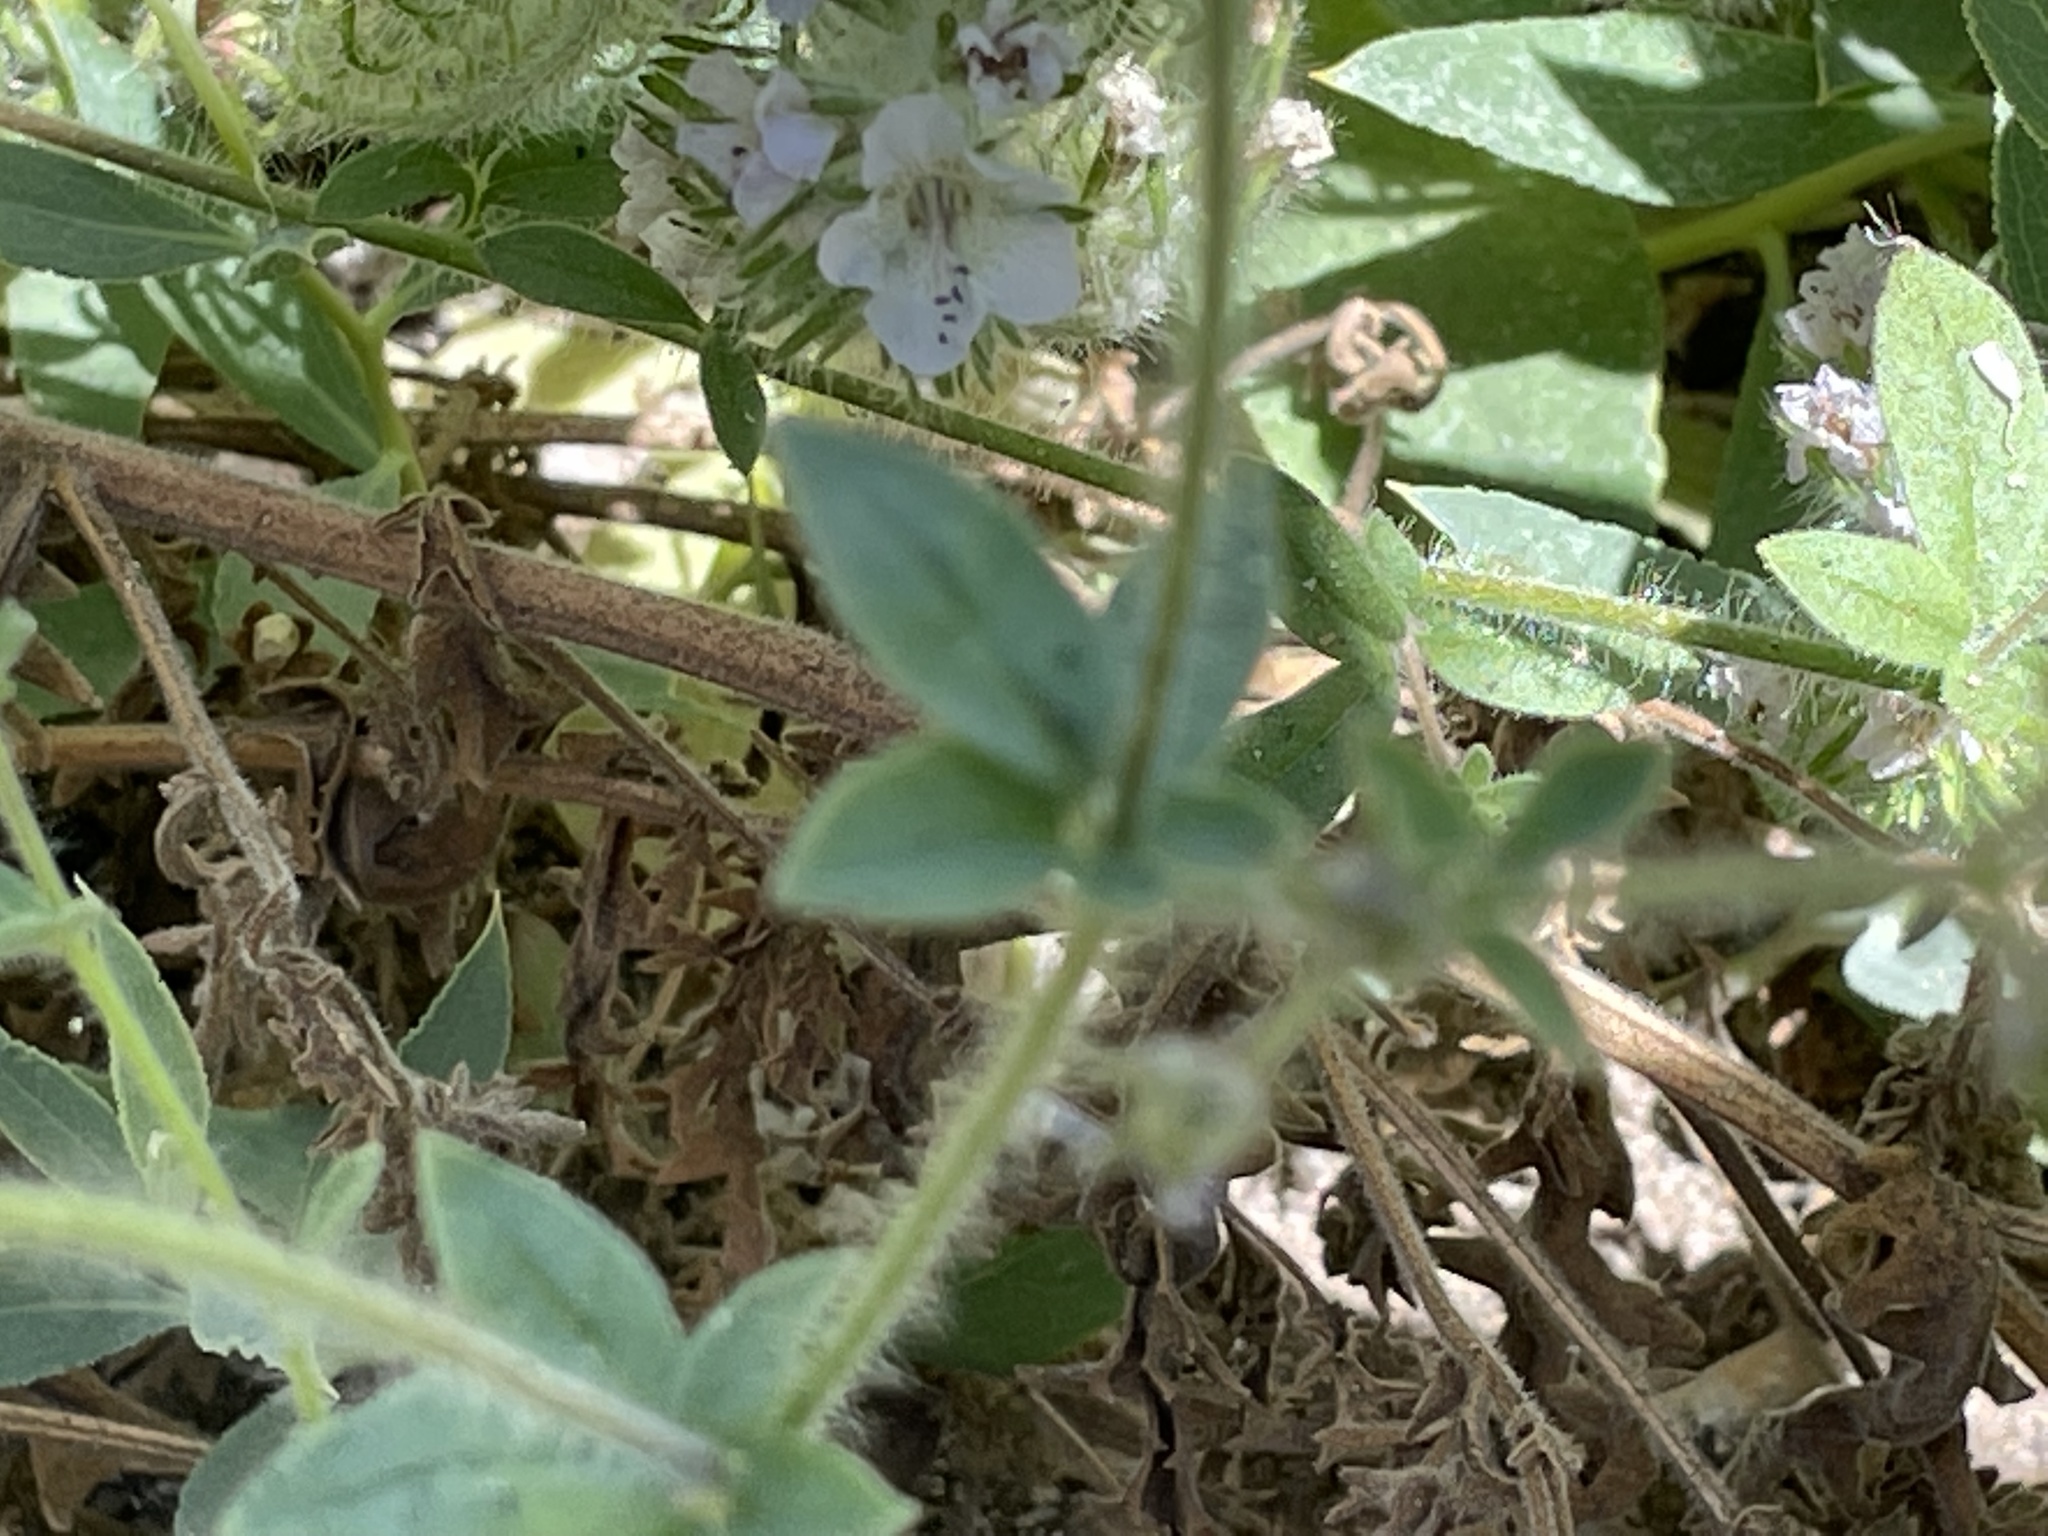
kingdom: Plantae
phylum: Tracheophyta
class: Magnoliopsida
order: Ericales
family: Polemoniaceae
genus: Allophyllum
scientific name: Allophyllum glutinosum
